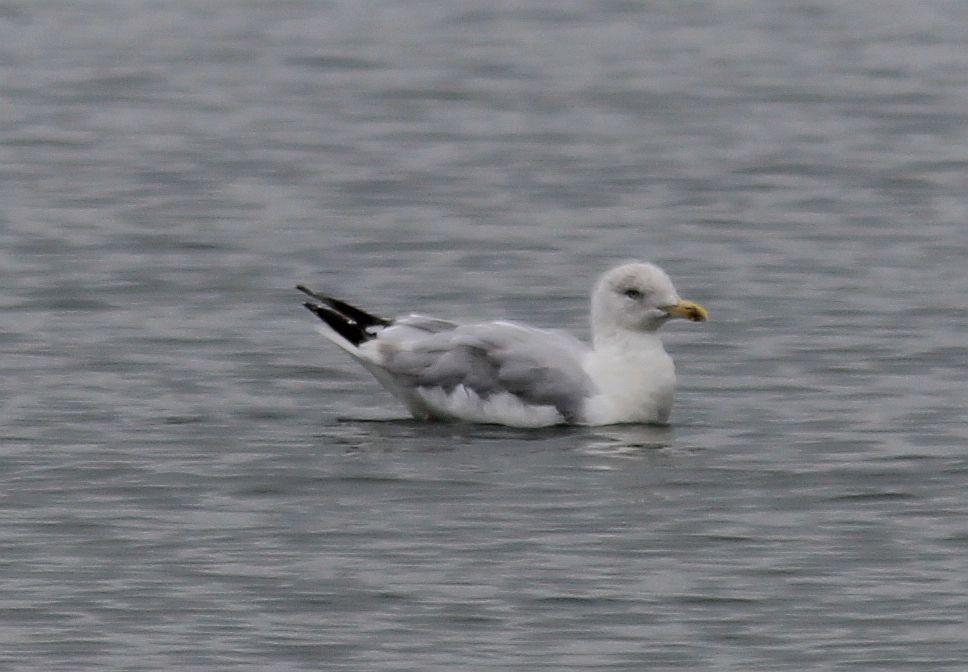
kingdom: Animalia
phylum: Chordata
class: Aves
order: Charadriiformes
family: Laridae
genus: Larus
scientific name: Larus argentatus
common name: Herring gull
